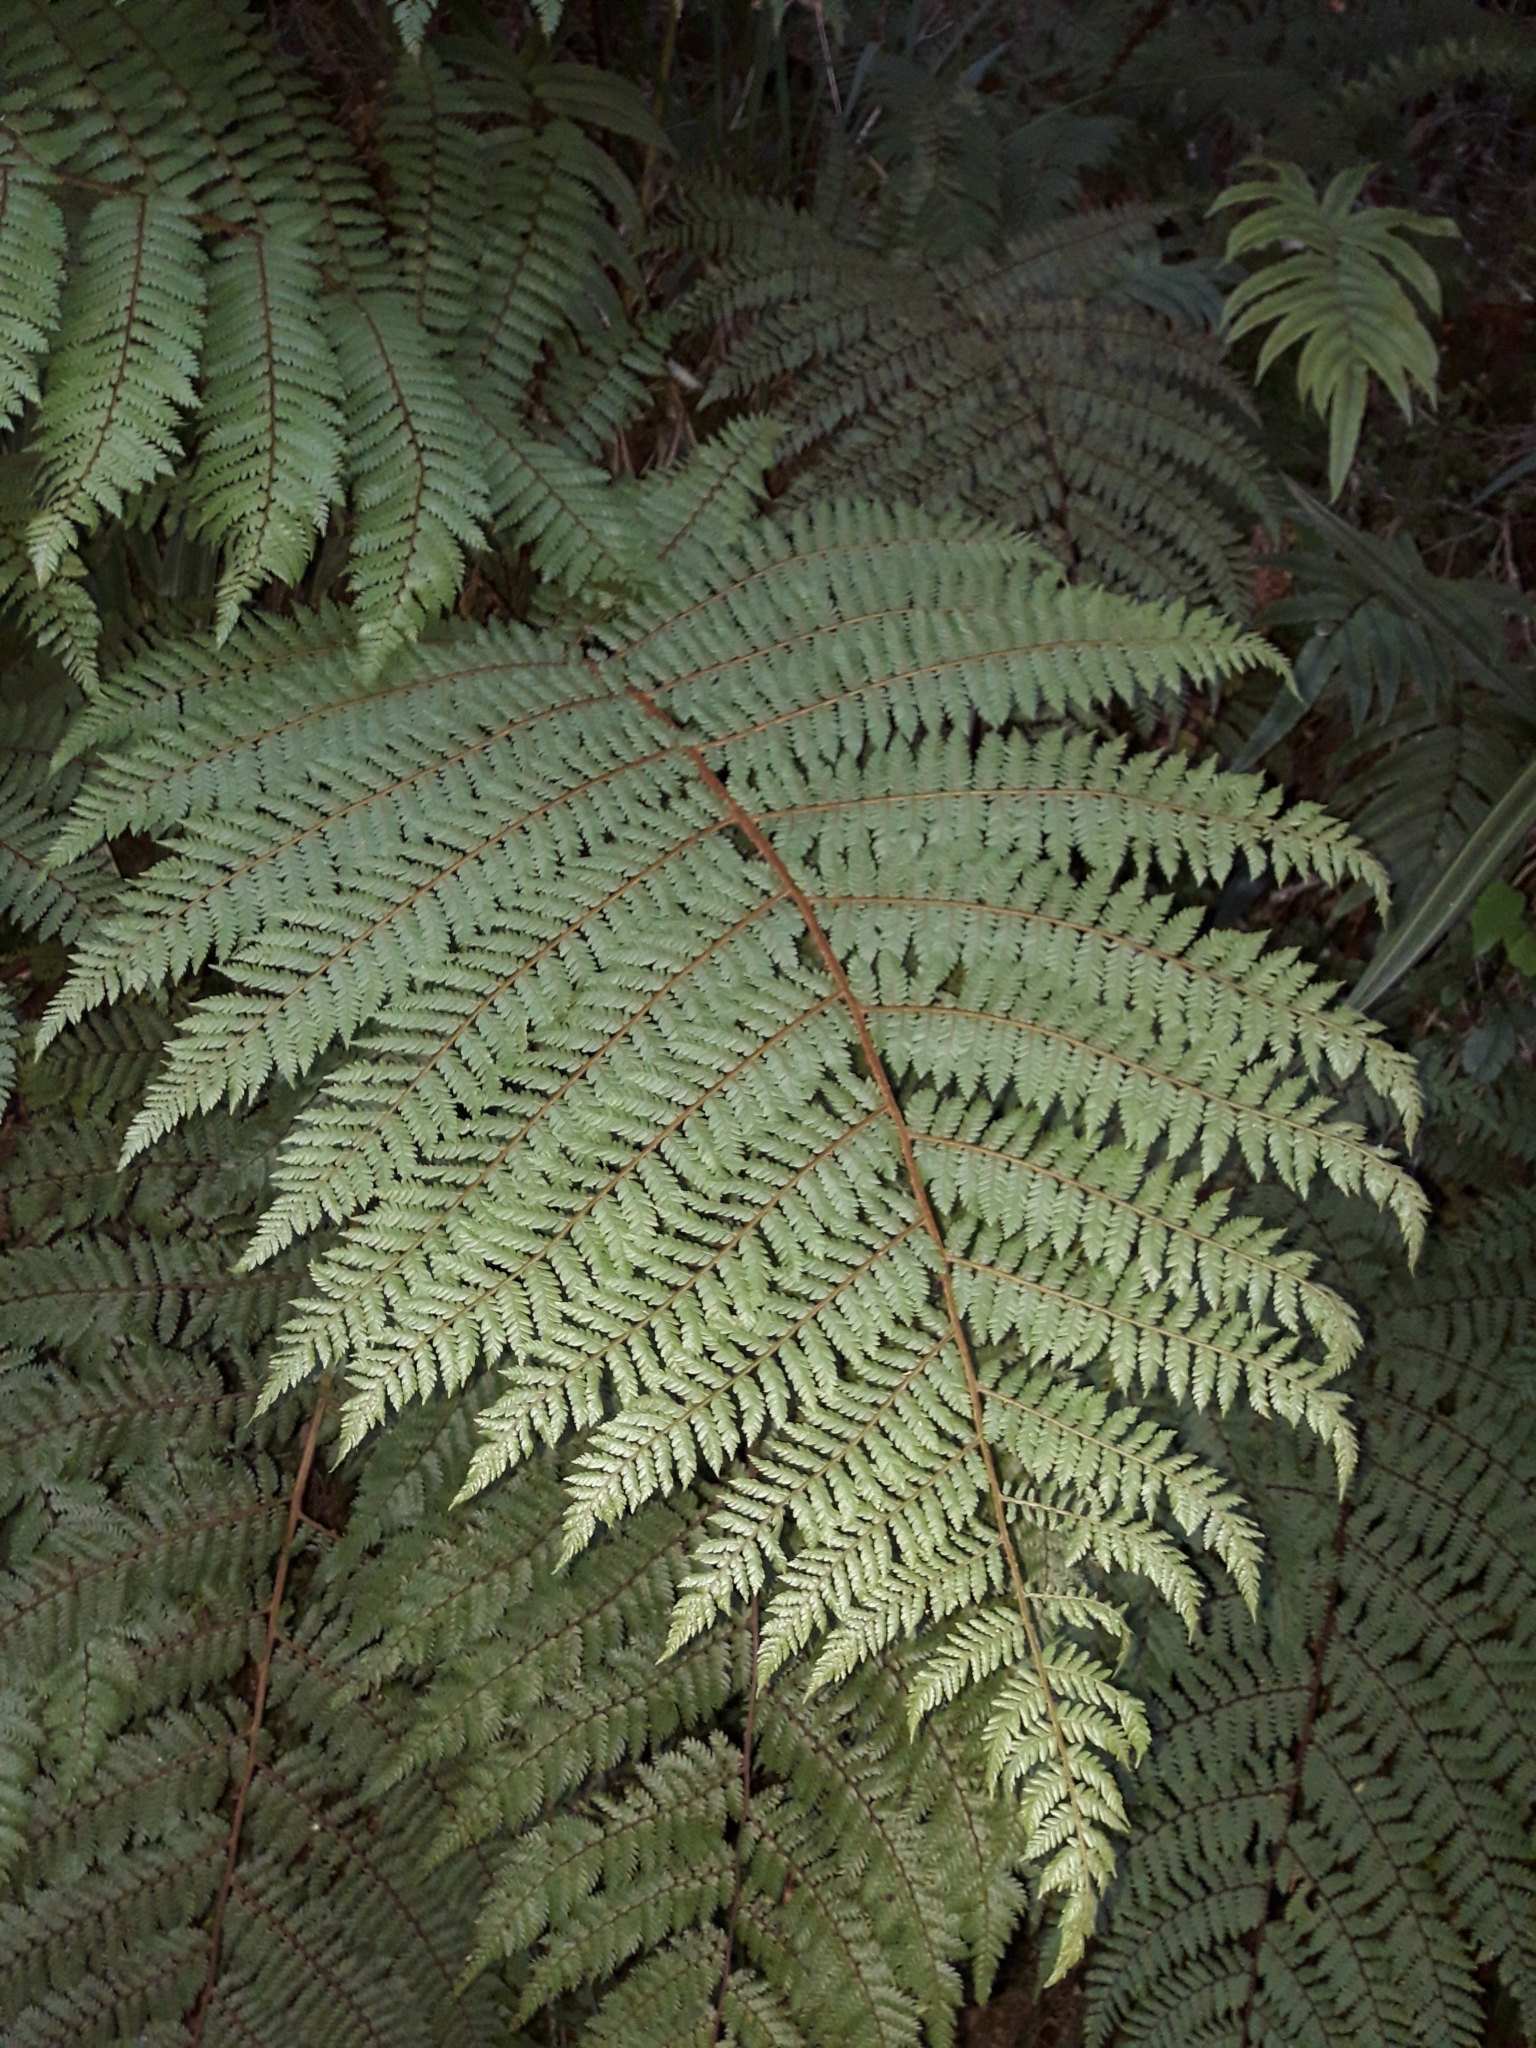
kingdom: Plantae
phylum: Tracheophyta
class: Polypodiopsida
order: Cyatheales
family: Cyatheaceae
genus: Alsophila
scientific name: Alsophila colensoi
